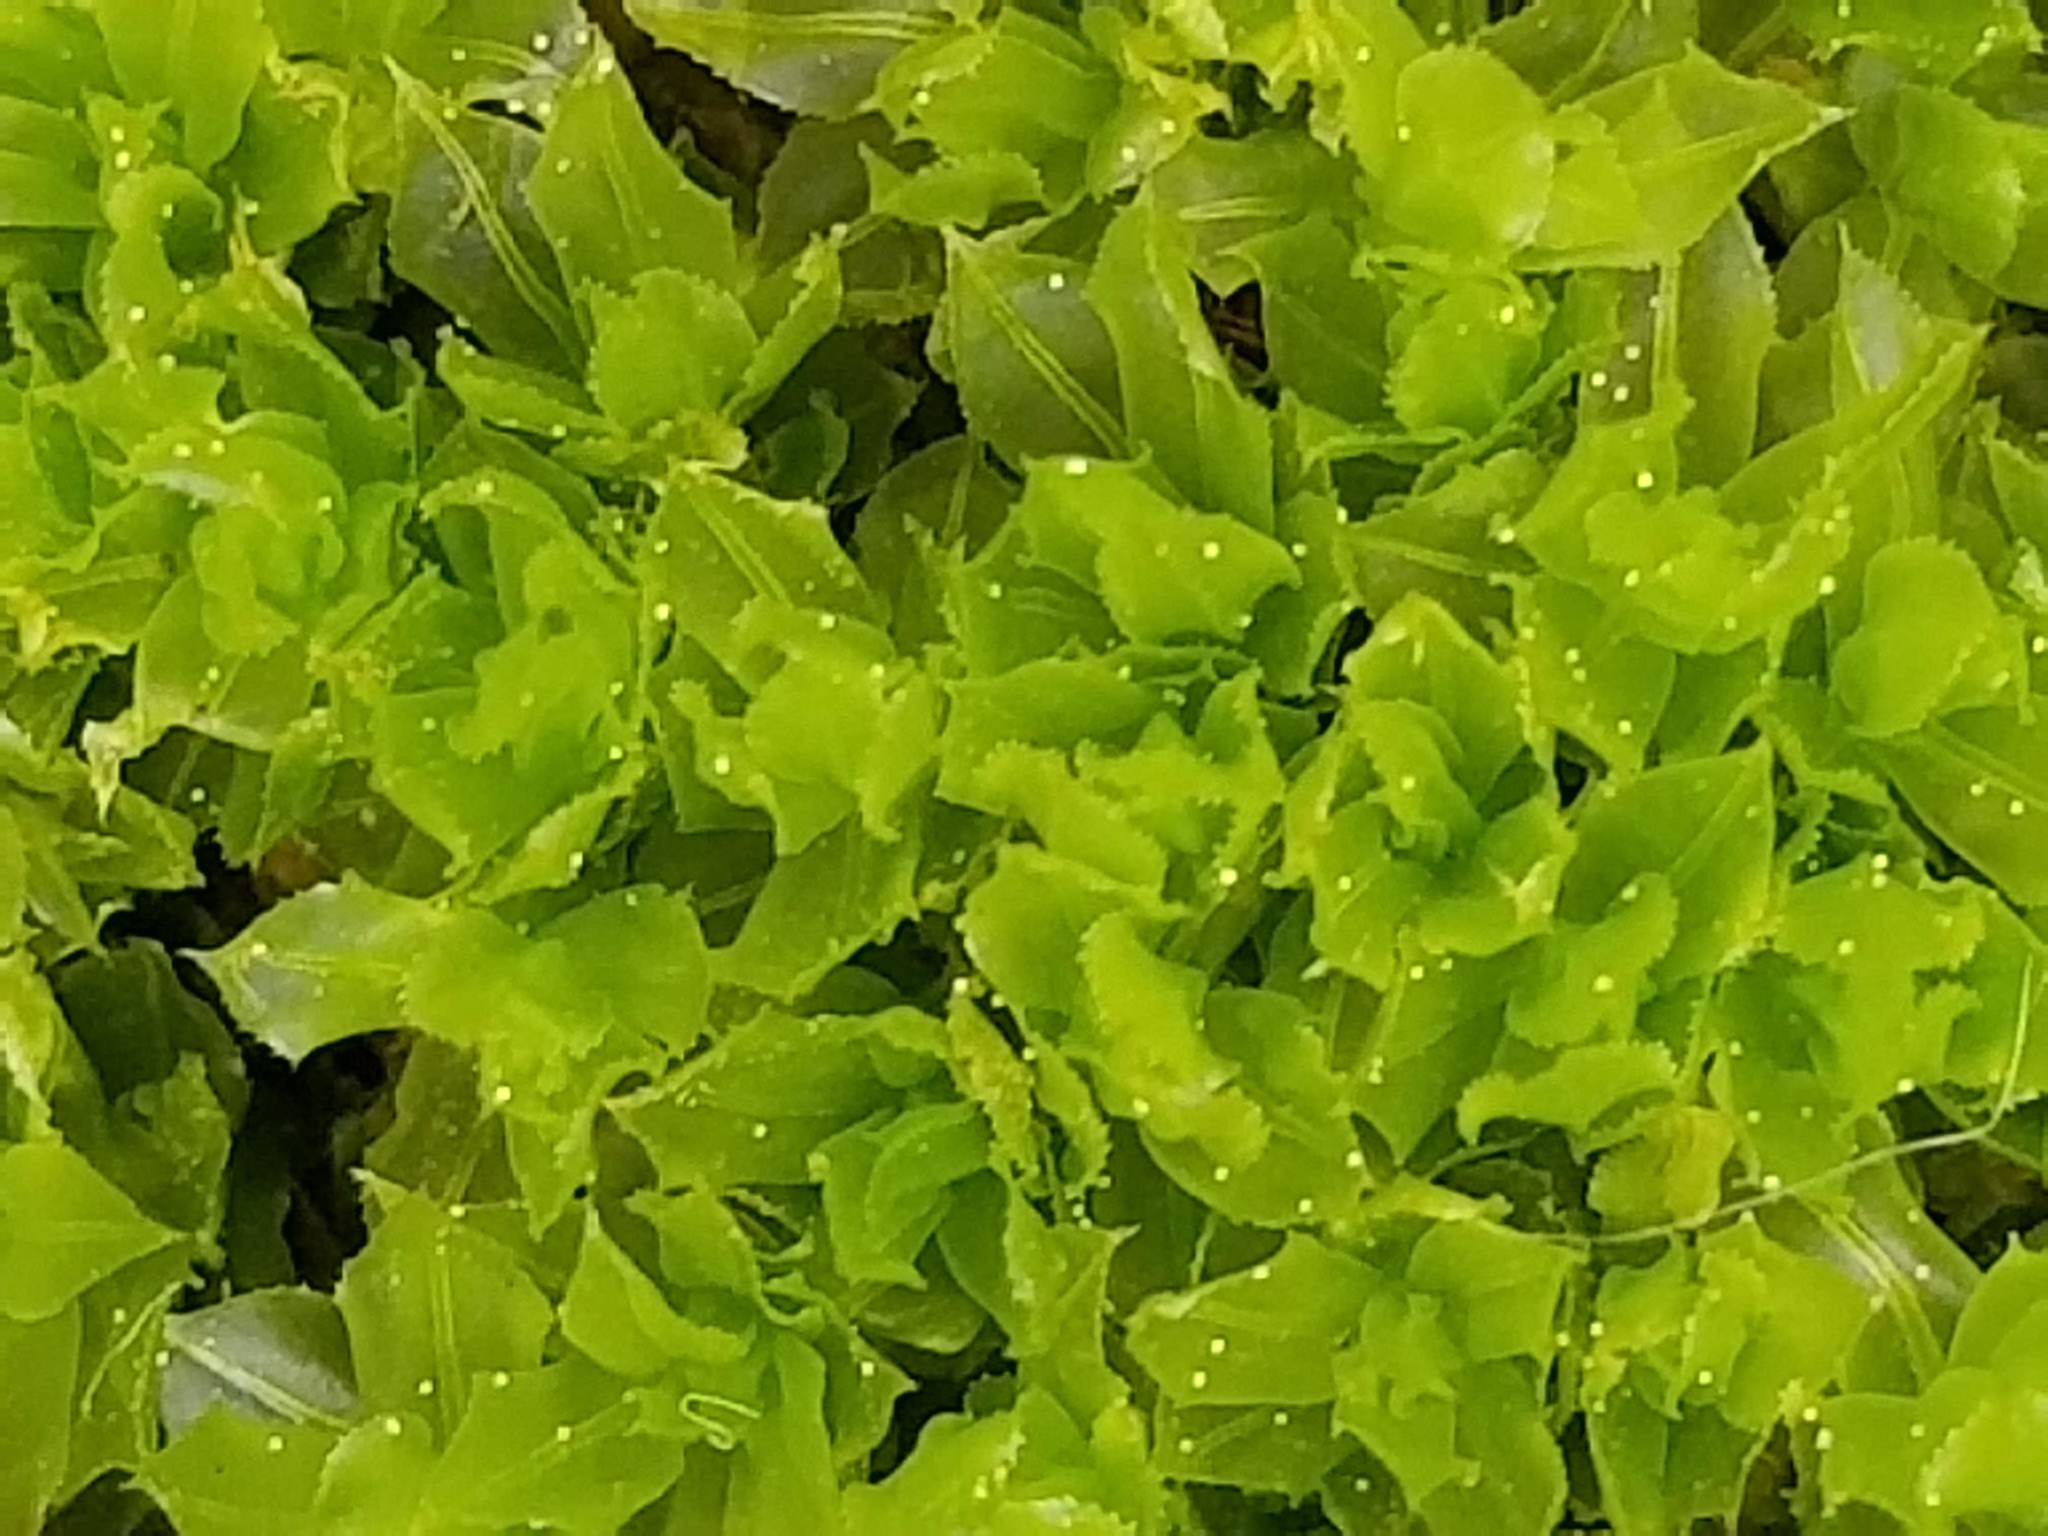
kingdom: Plantae
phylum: Bryophyta
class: Bryopsida
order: Bryales
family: Mniaceae
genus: Plagiomnium
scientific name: Plagiomnium cuspidatum
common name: Woodsy leafy moss
